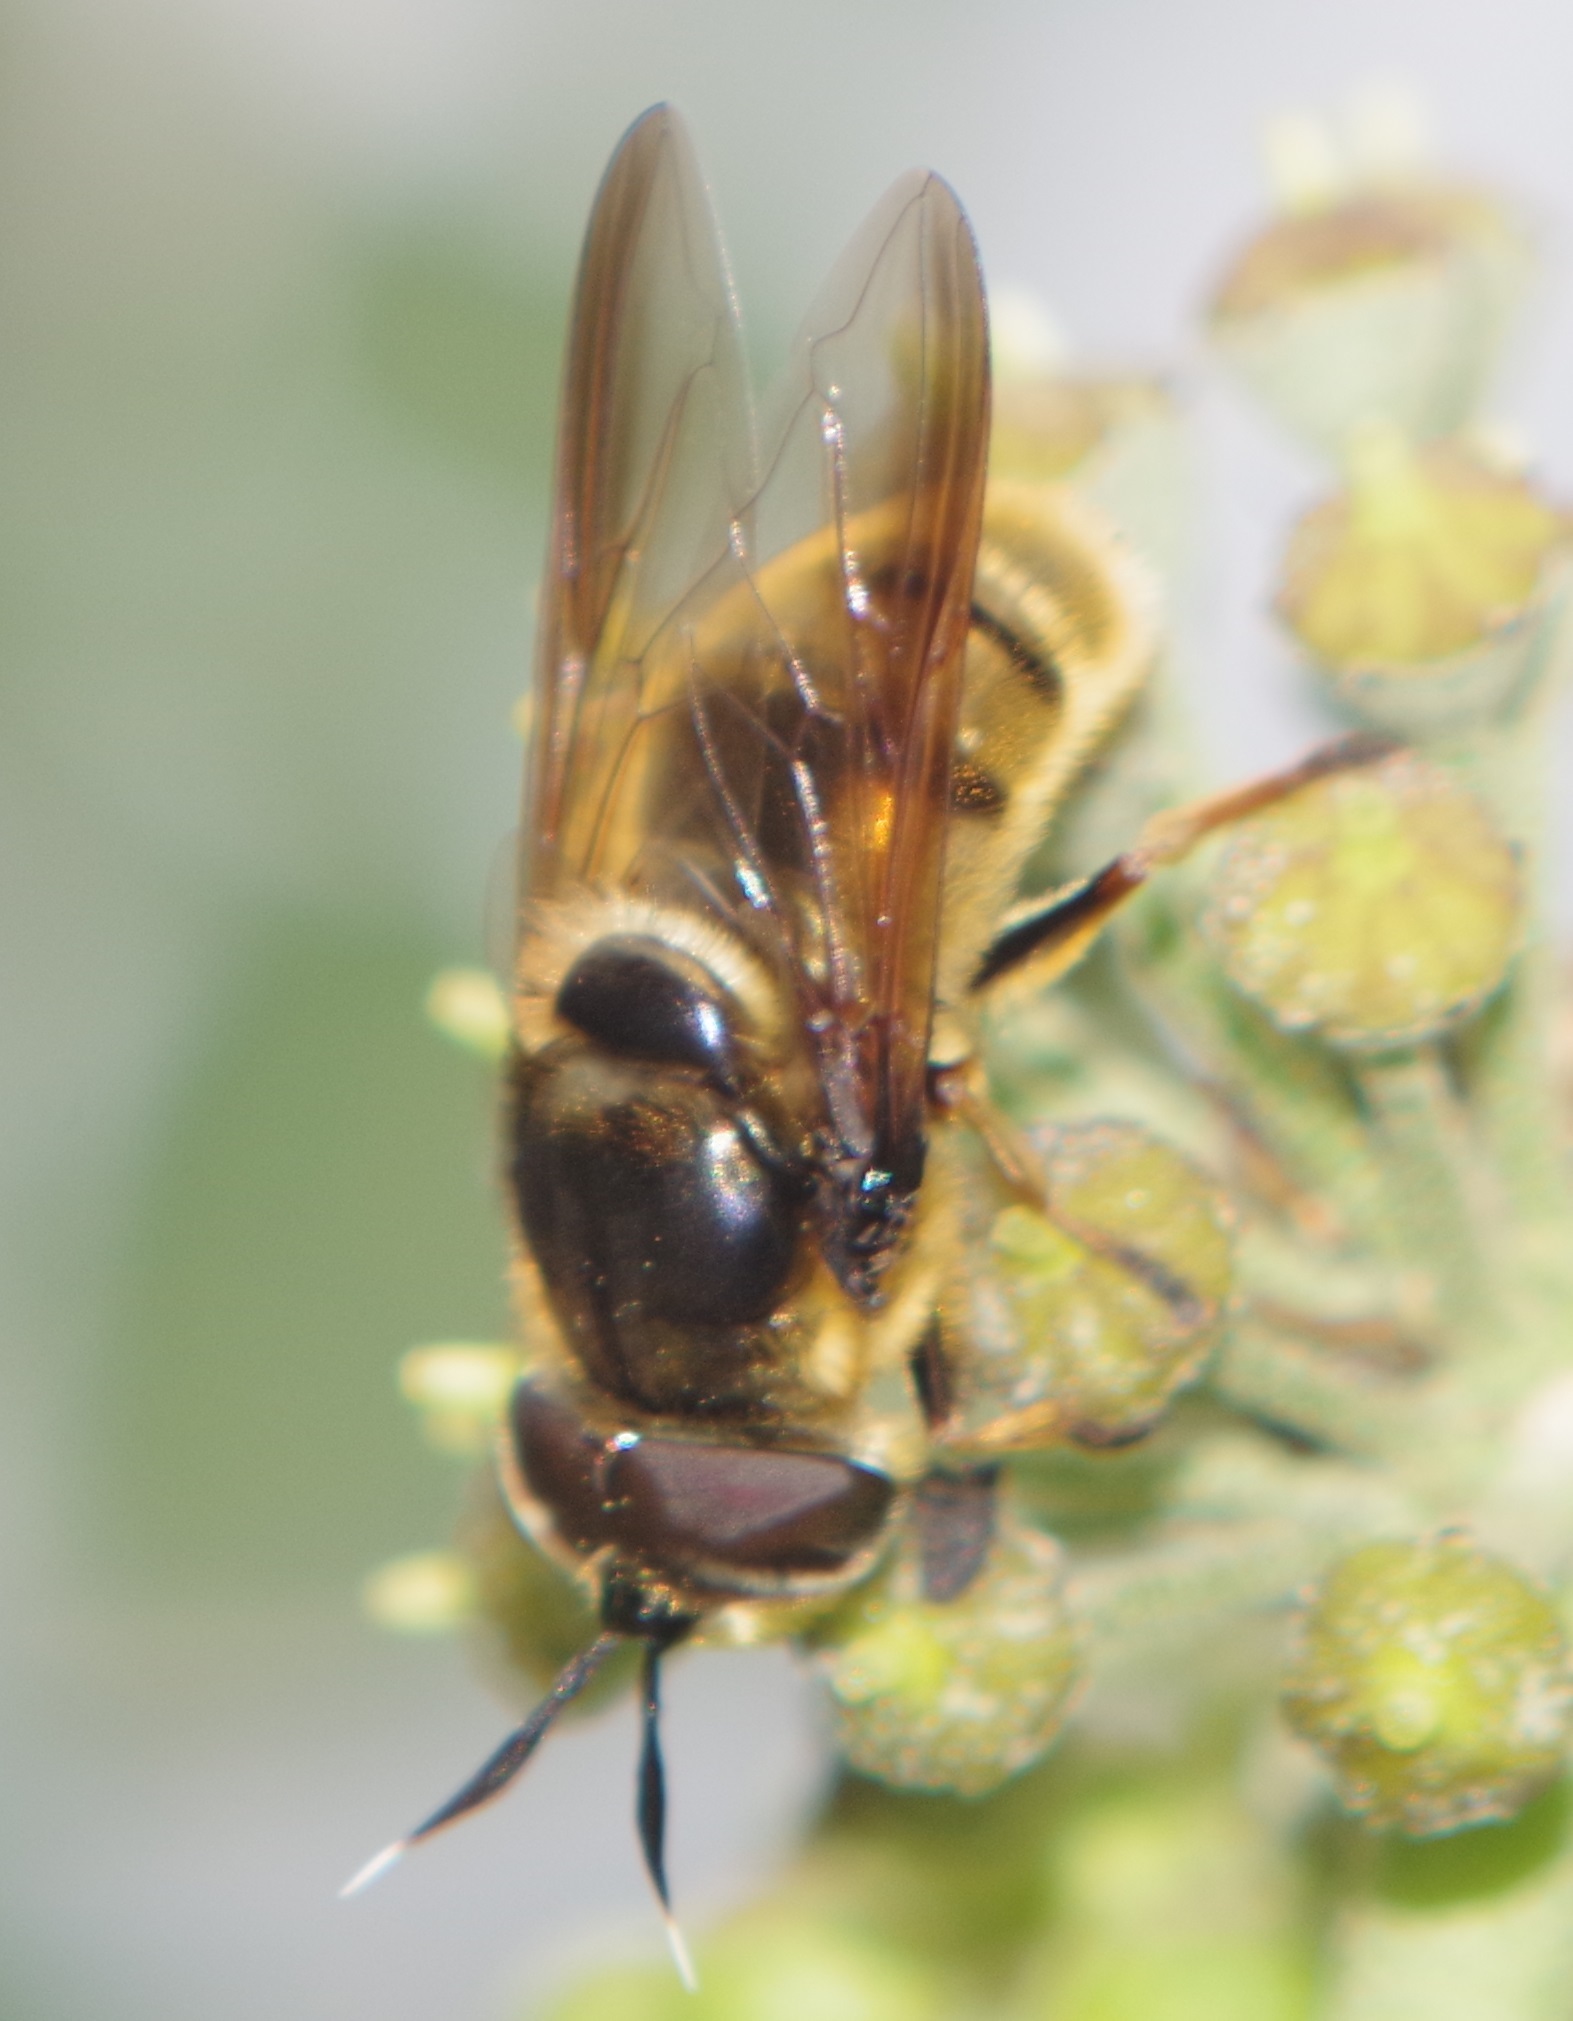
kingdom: Animalia
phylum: Arthropoda
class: Insecta
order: Diptera
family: Syrphidae
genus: Callicera
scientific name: Callicera spinolae
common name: Golden hoverfly
